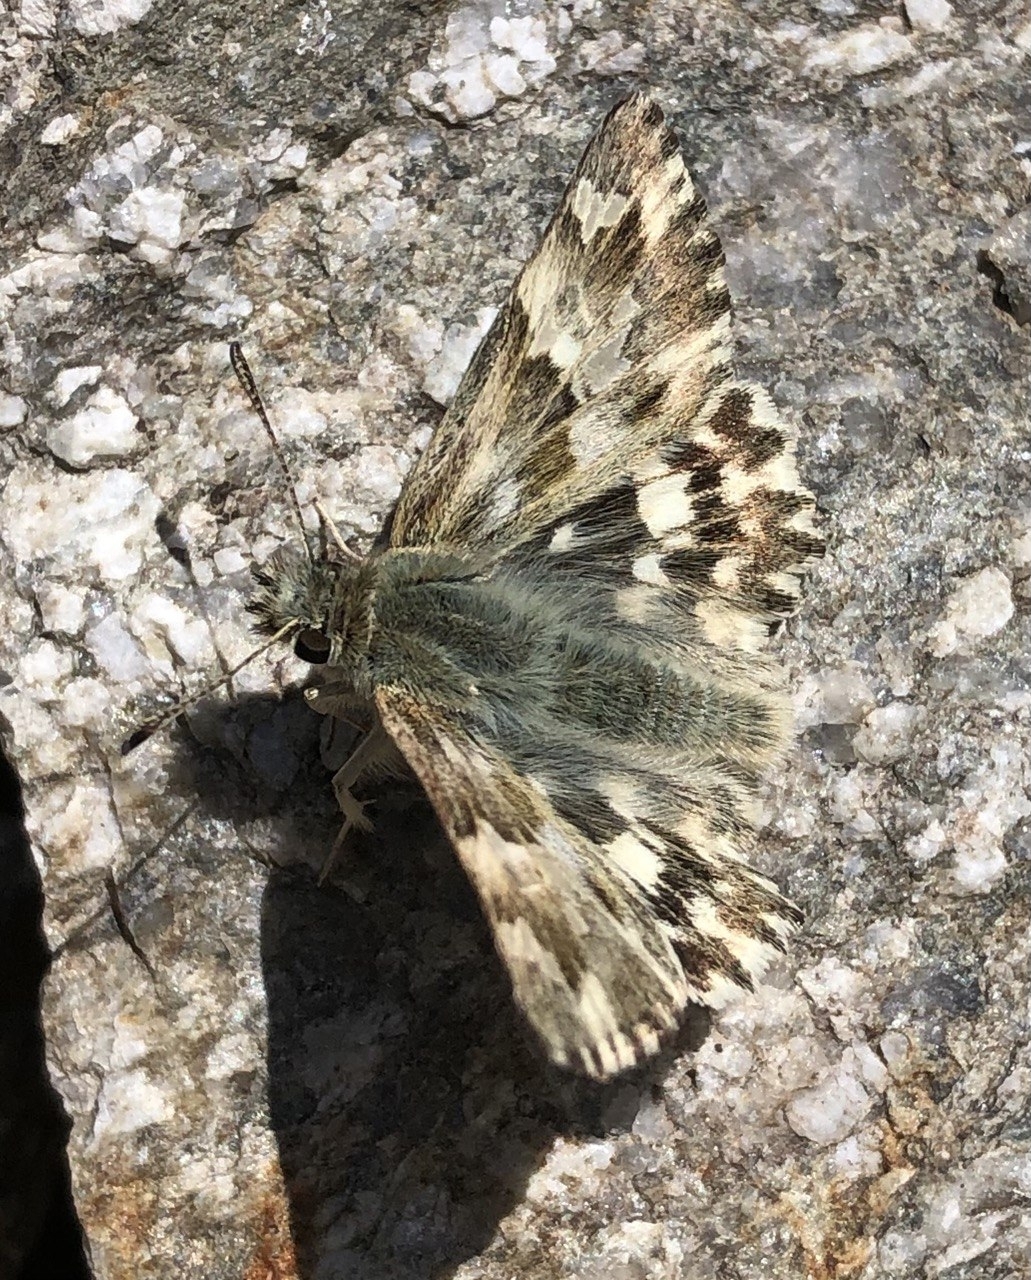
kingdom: Animalia
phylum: Arthropoda
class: Insecta
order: Lepidoptera
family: Hesperiidae
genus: Carcharodus
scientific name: Carcharodus lavatherae
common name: Marbled skipper
